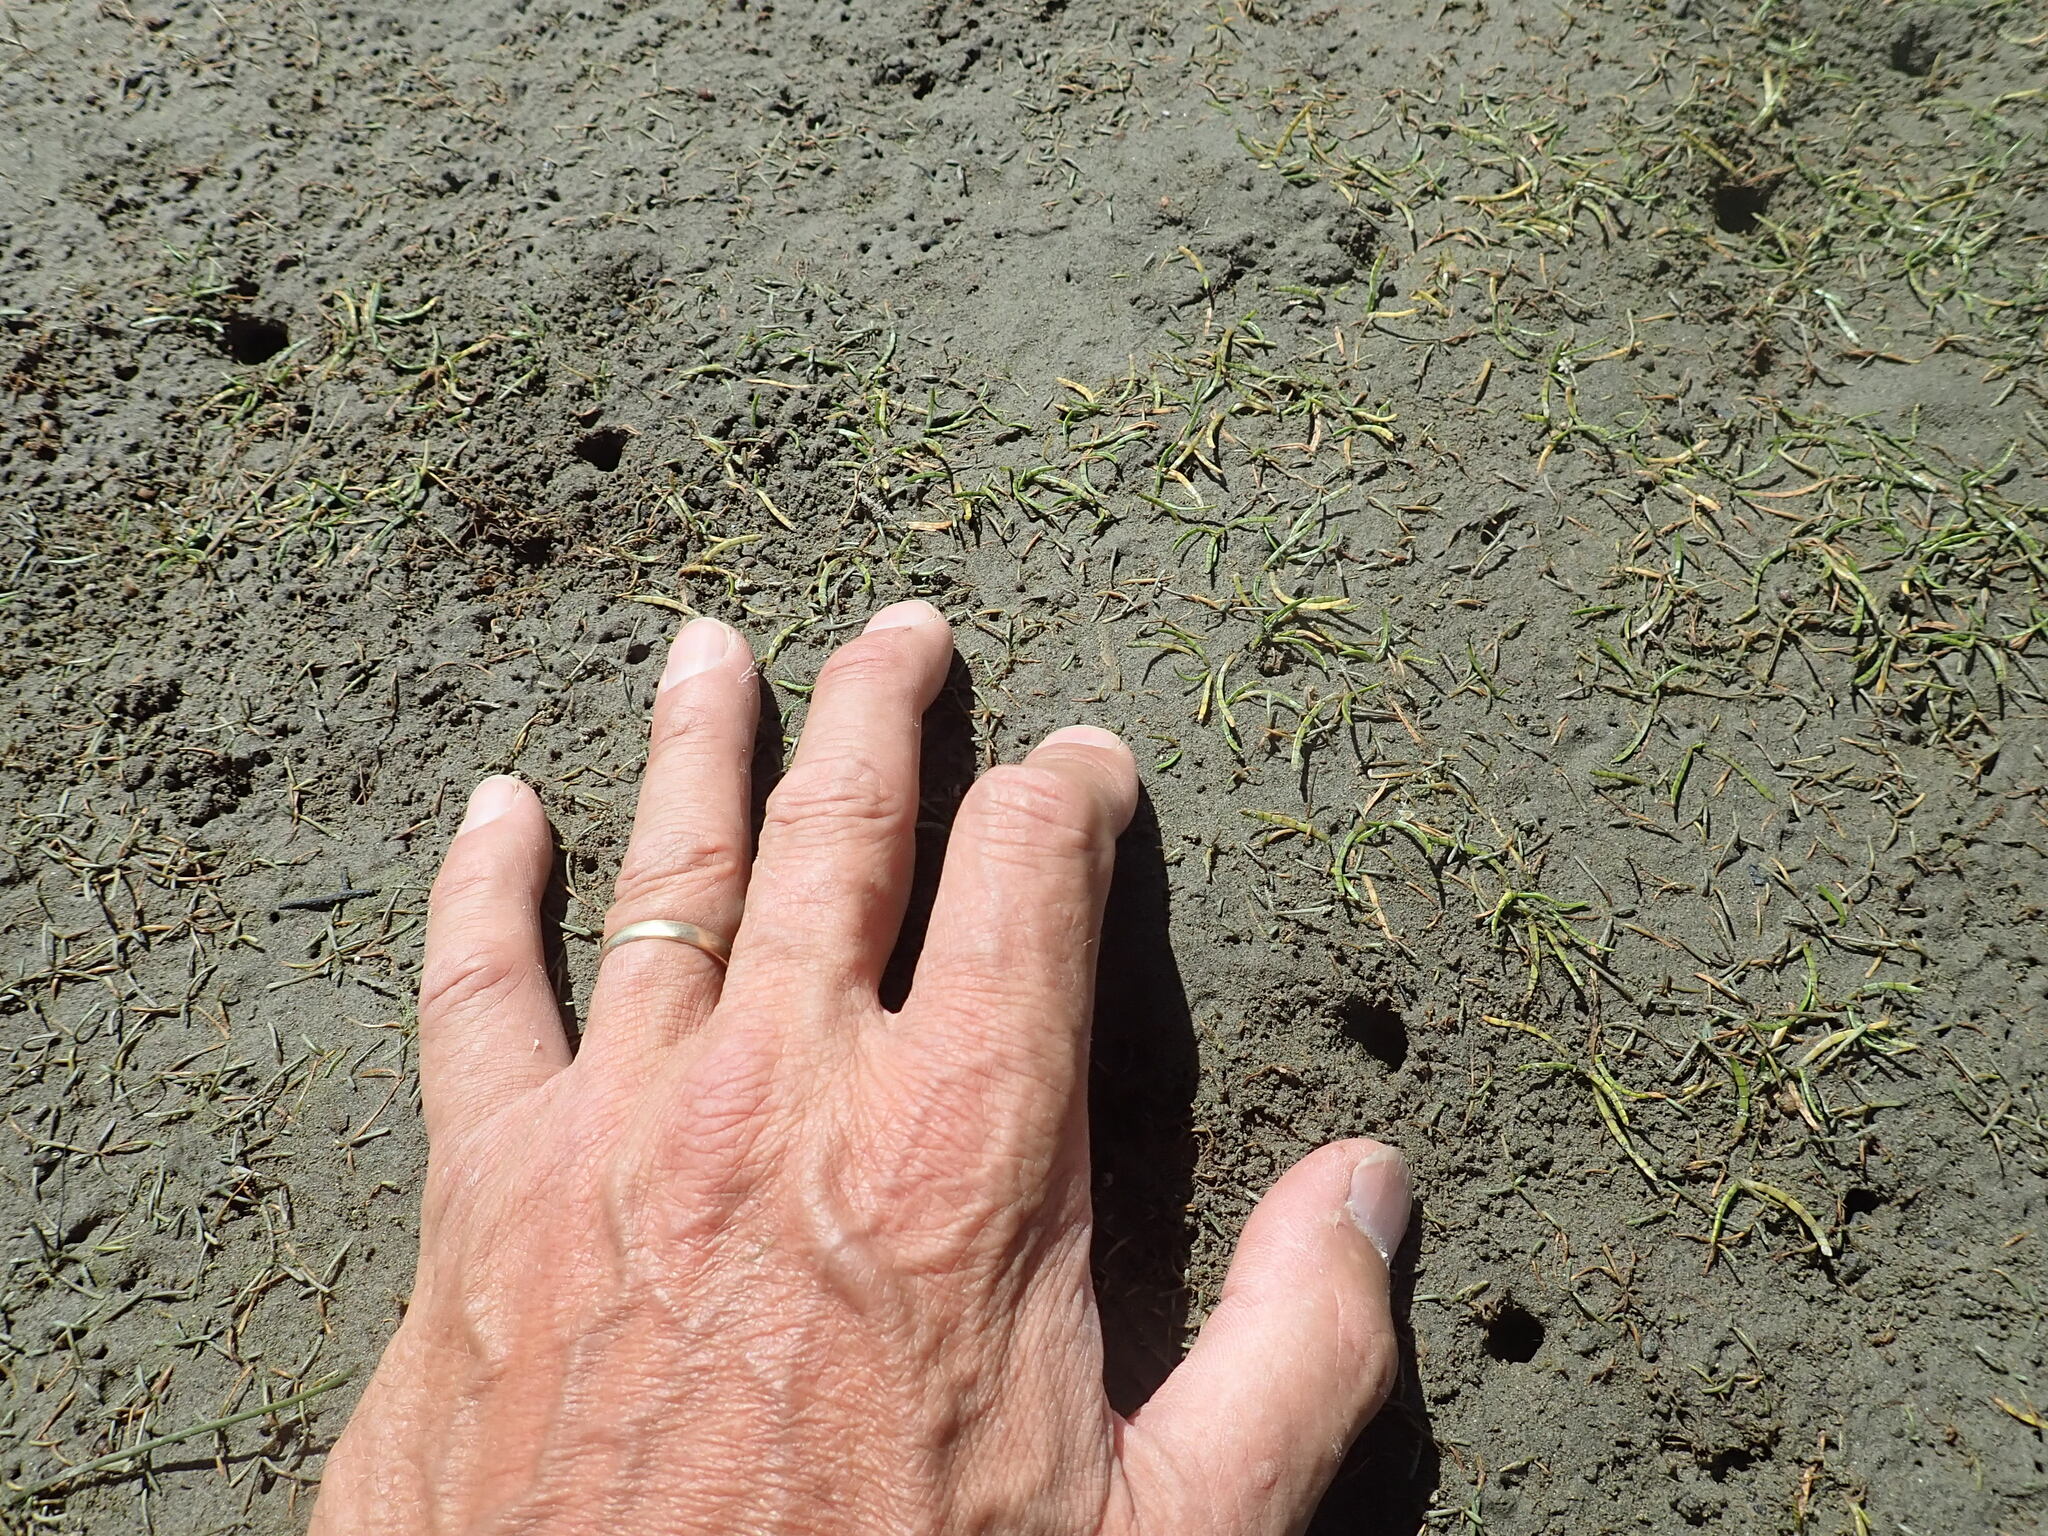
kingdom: Plantae
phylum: Tracheophyta
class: Magnoliopsida
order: Apiales
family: Apiaceae
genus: Lilaeopsis
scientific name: Lilaeopsis novae-zelandiae
